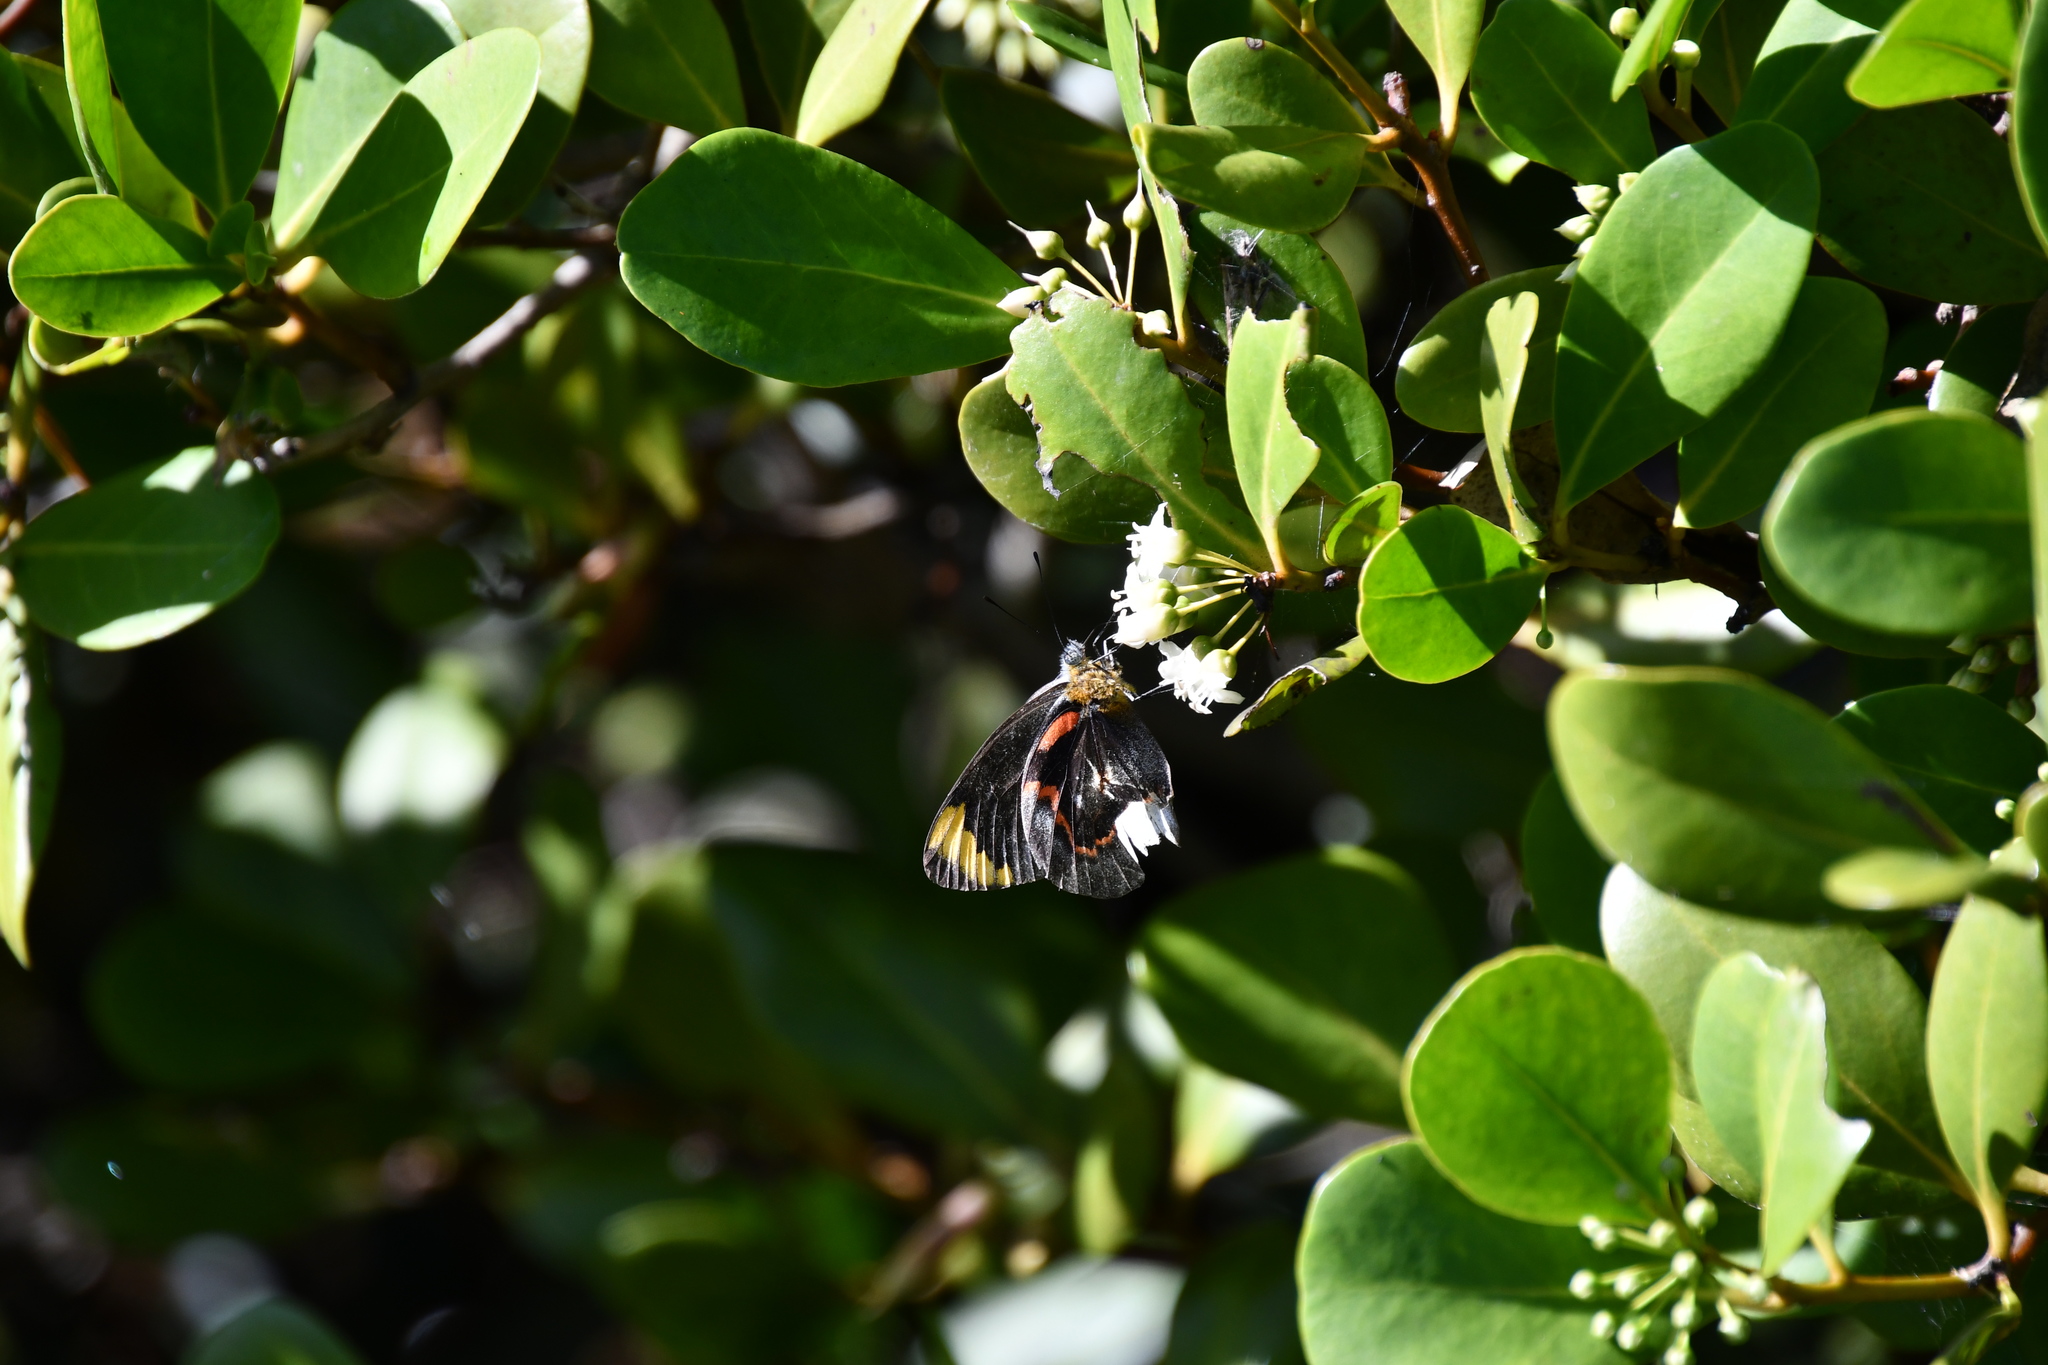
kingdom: Animalia
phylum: Arthropoda
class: Insecta
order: Lepidoptera
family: Pieridae
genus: Delias
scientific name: Delias nigrina
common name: Black jezebel
